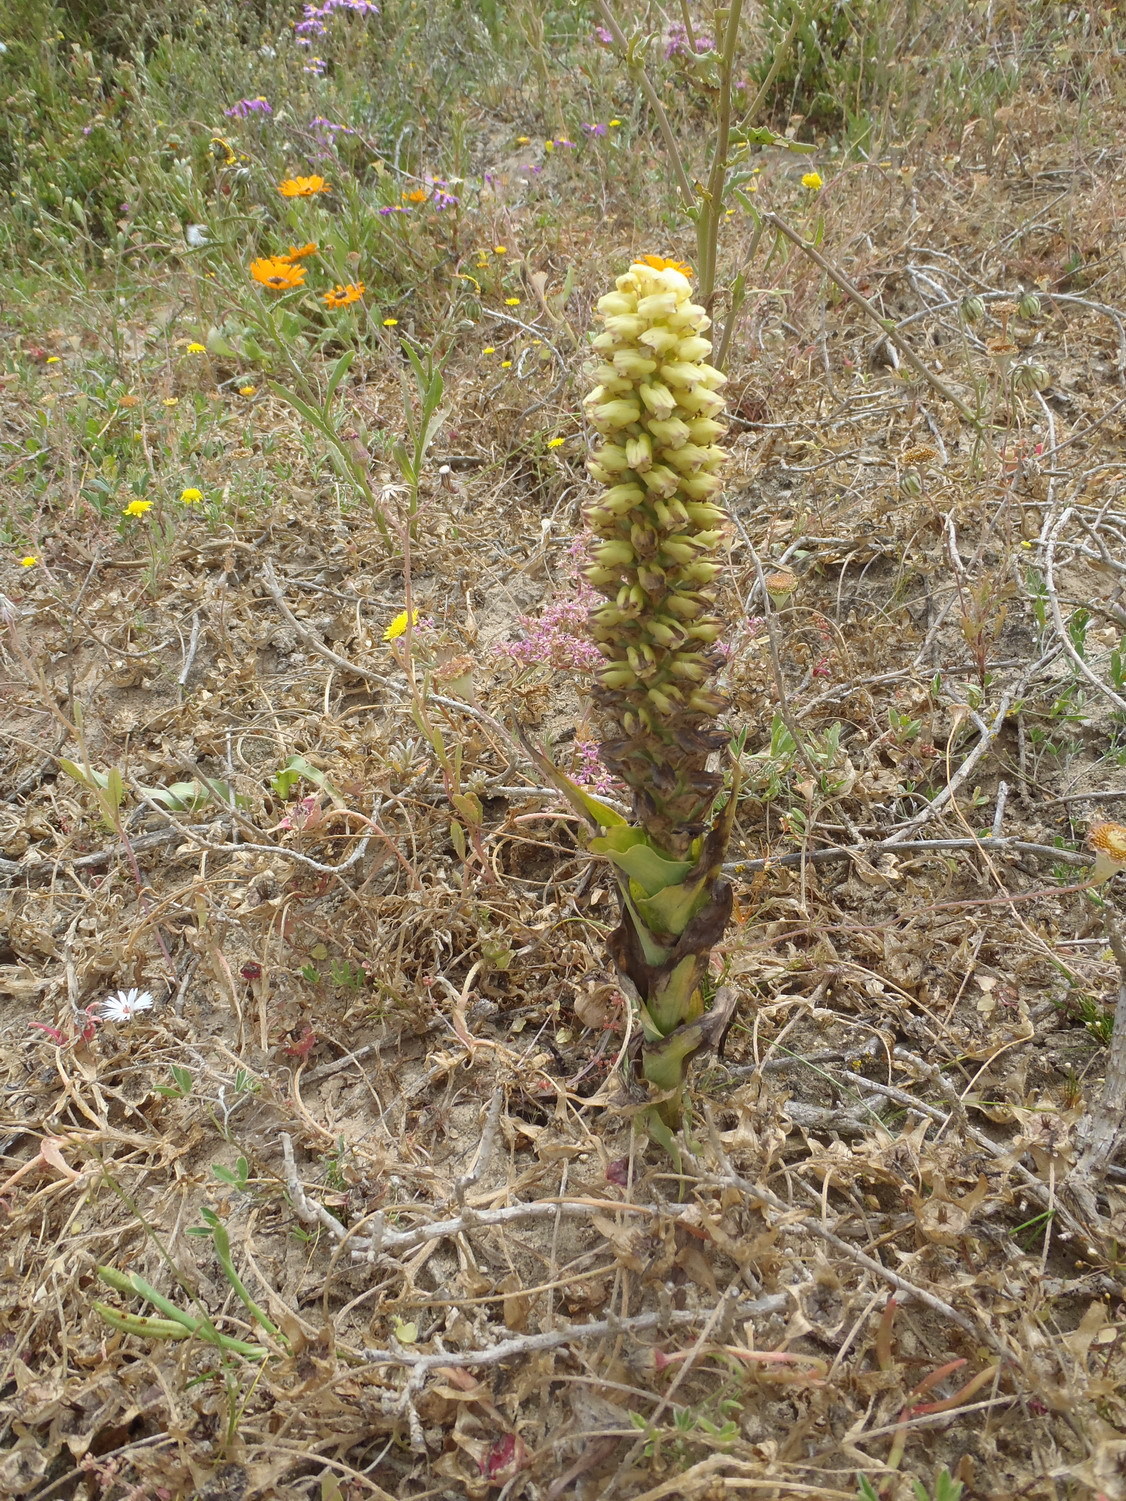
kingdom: Plantae
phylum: Tracheophyta
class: Liliopsida
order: Asparagales
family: Orchidaceae
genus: Corycium
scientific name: Corycium orobanchoides
